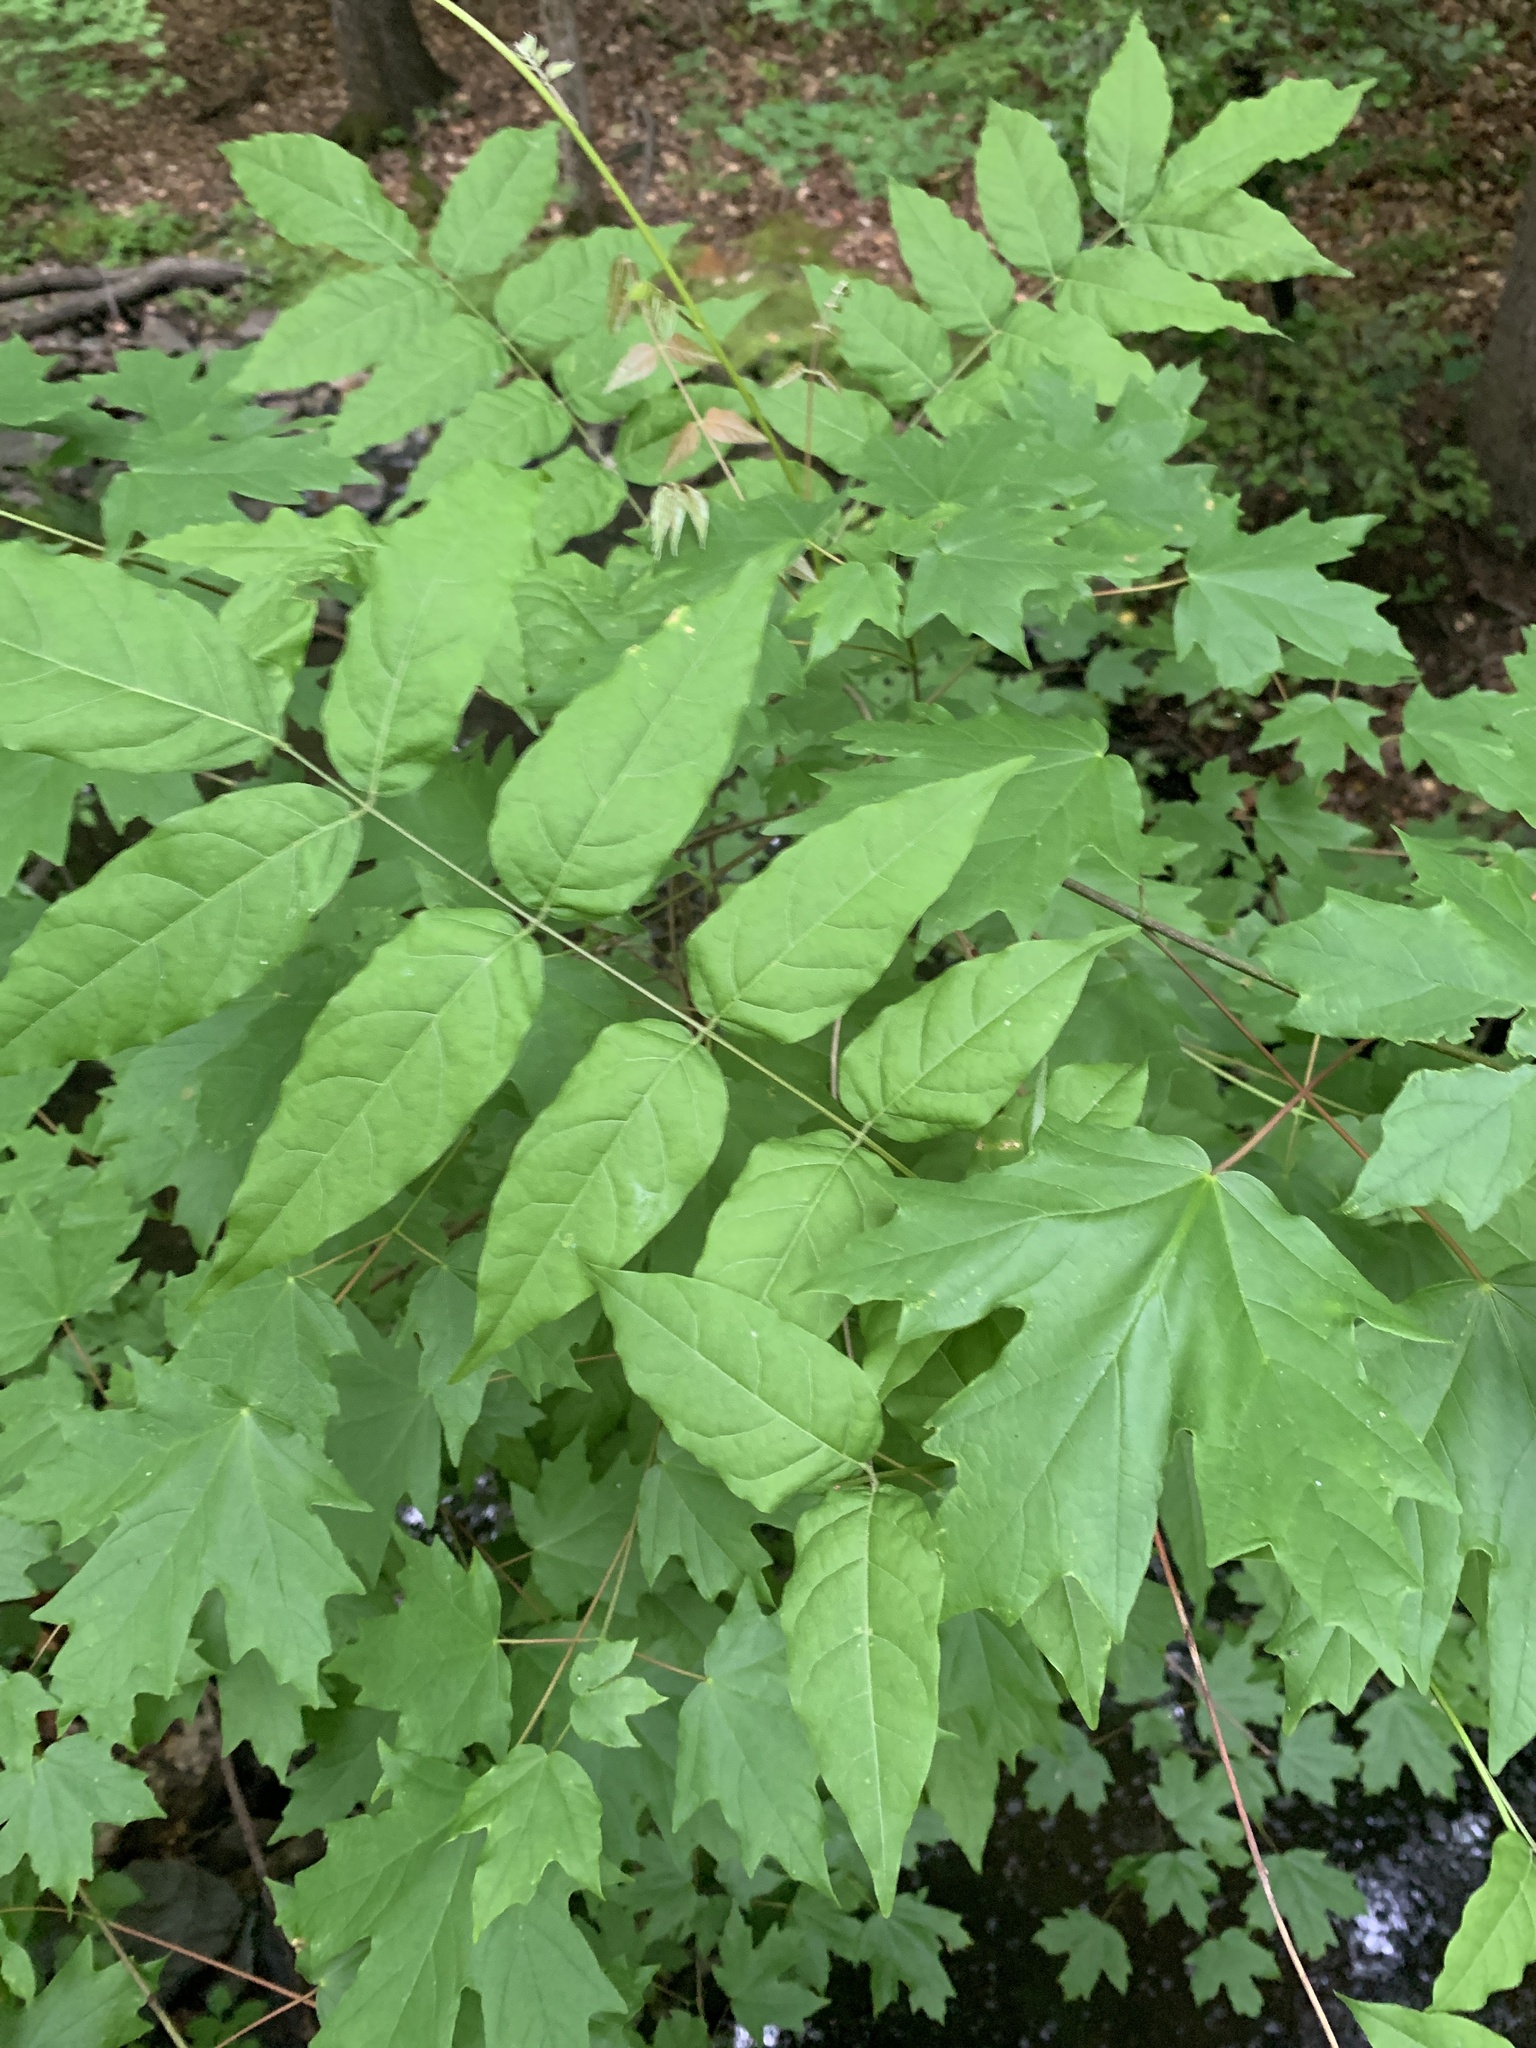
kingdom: Plantae
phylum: Tracheophyta
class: Magnoliopsida
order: Fabales
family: Fabaceae
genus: Wisteria
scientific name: Wisteria sinensis
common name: Chinese wisteria
